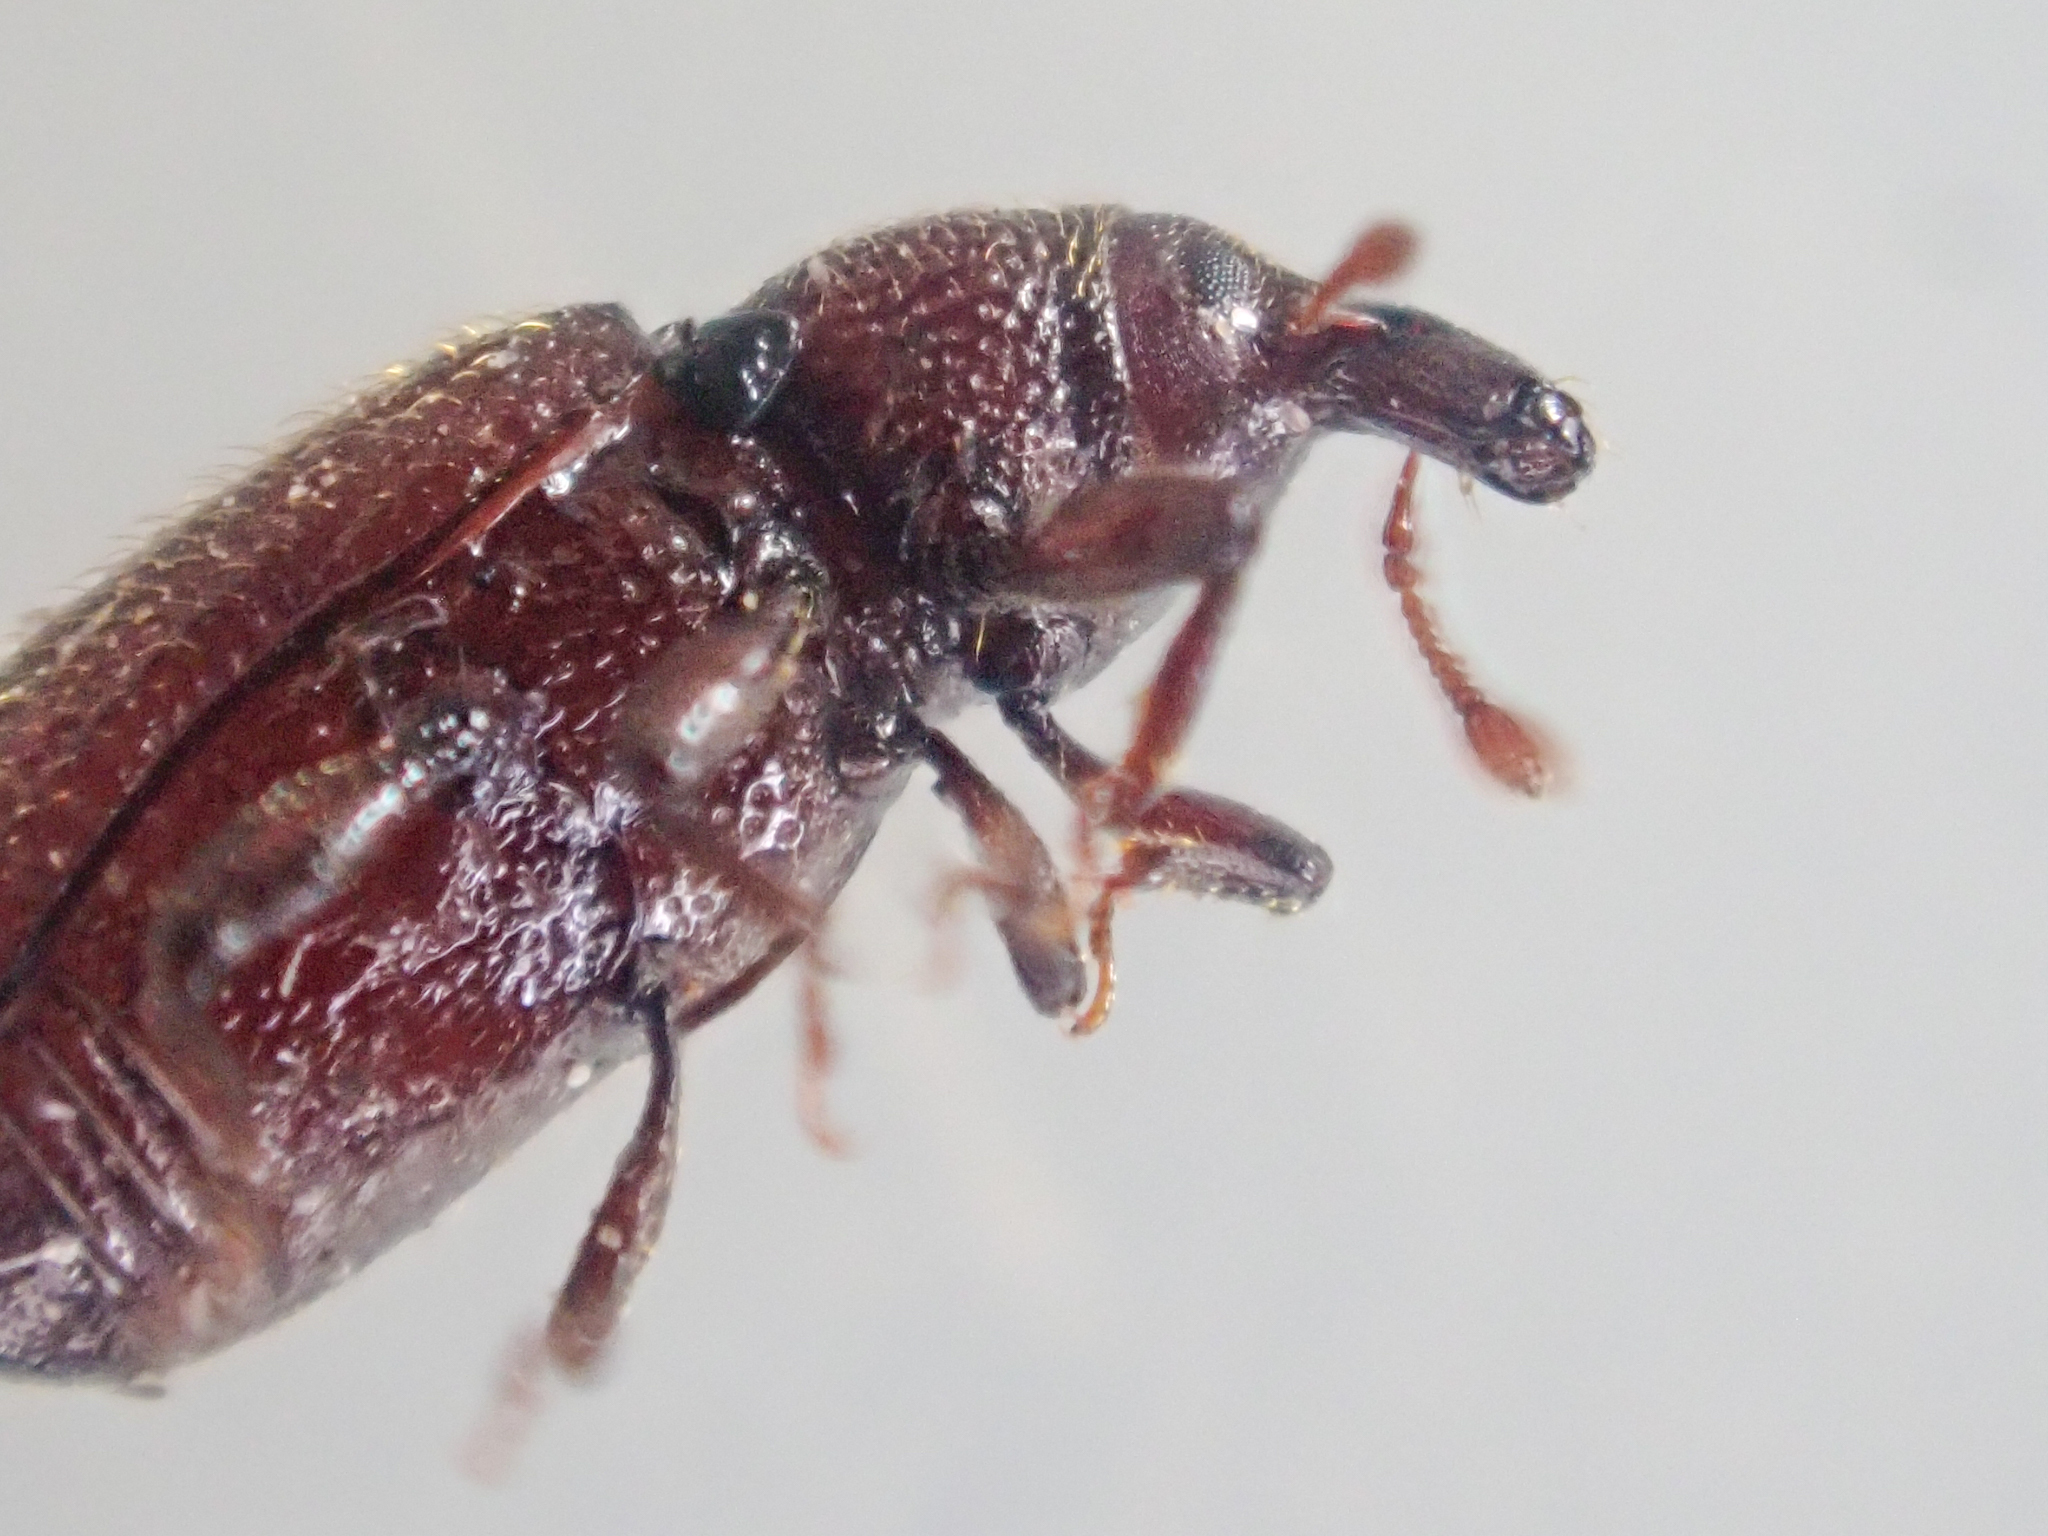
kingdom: Animalia
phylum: Arthropoda
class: Insecta
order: Coleoptera
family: Curculionidae
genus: Pselactus
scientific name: Pselactus spadix
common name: Wood-boring weevil
